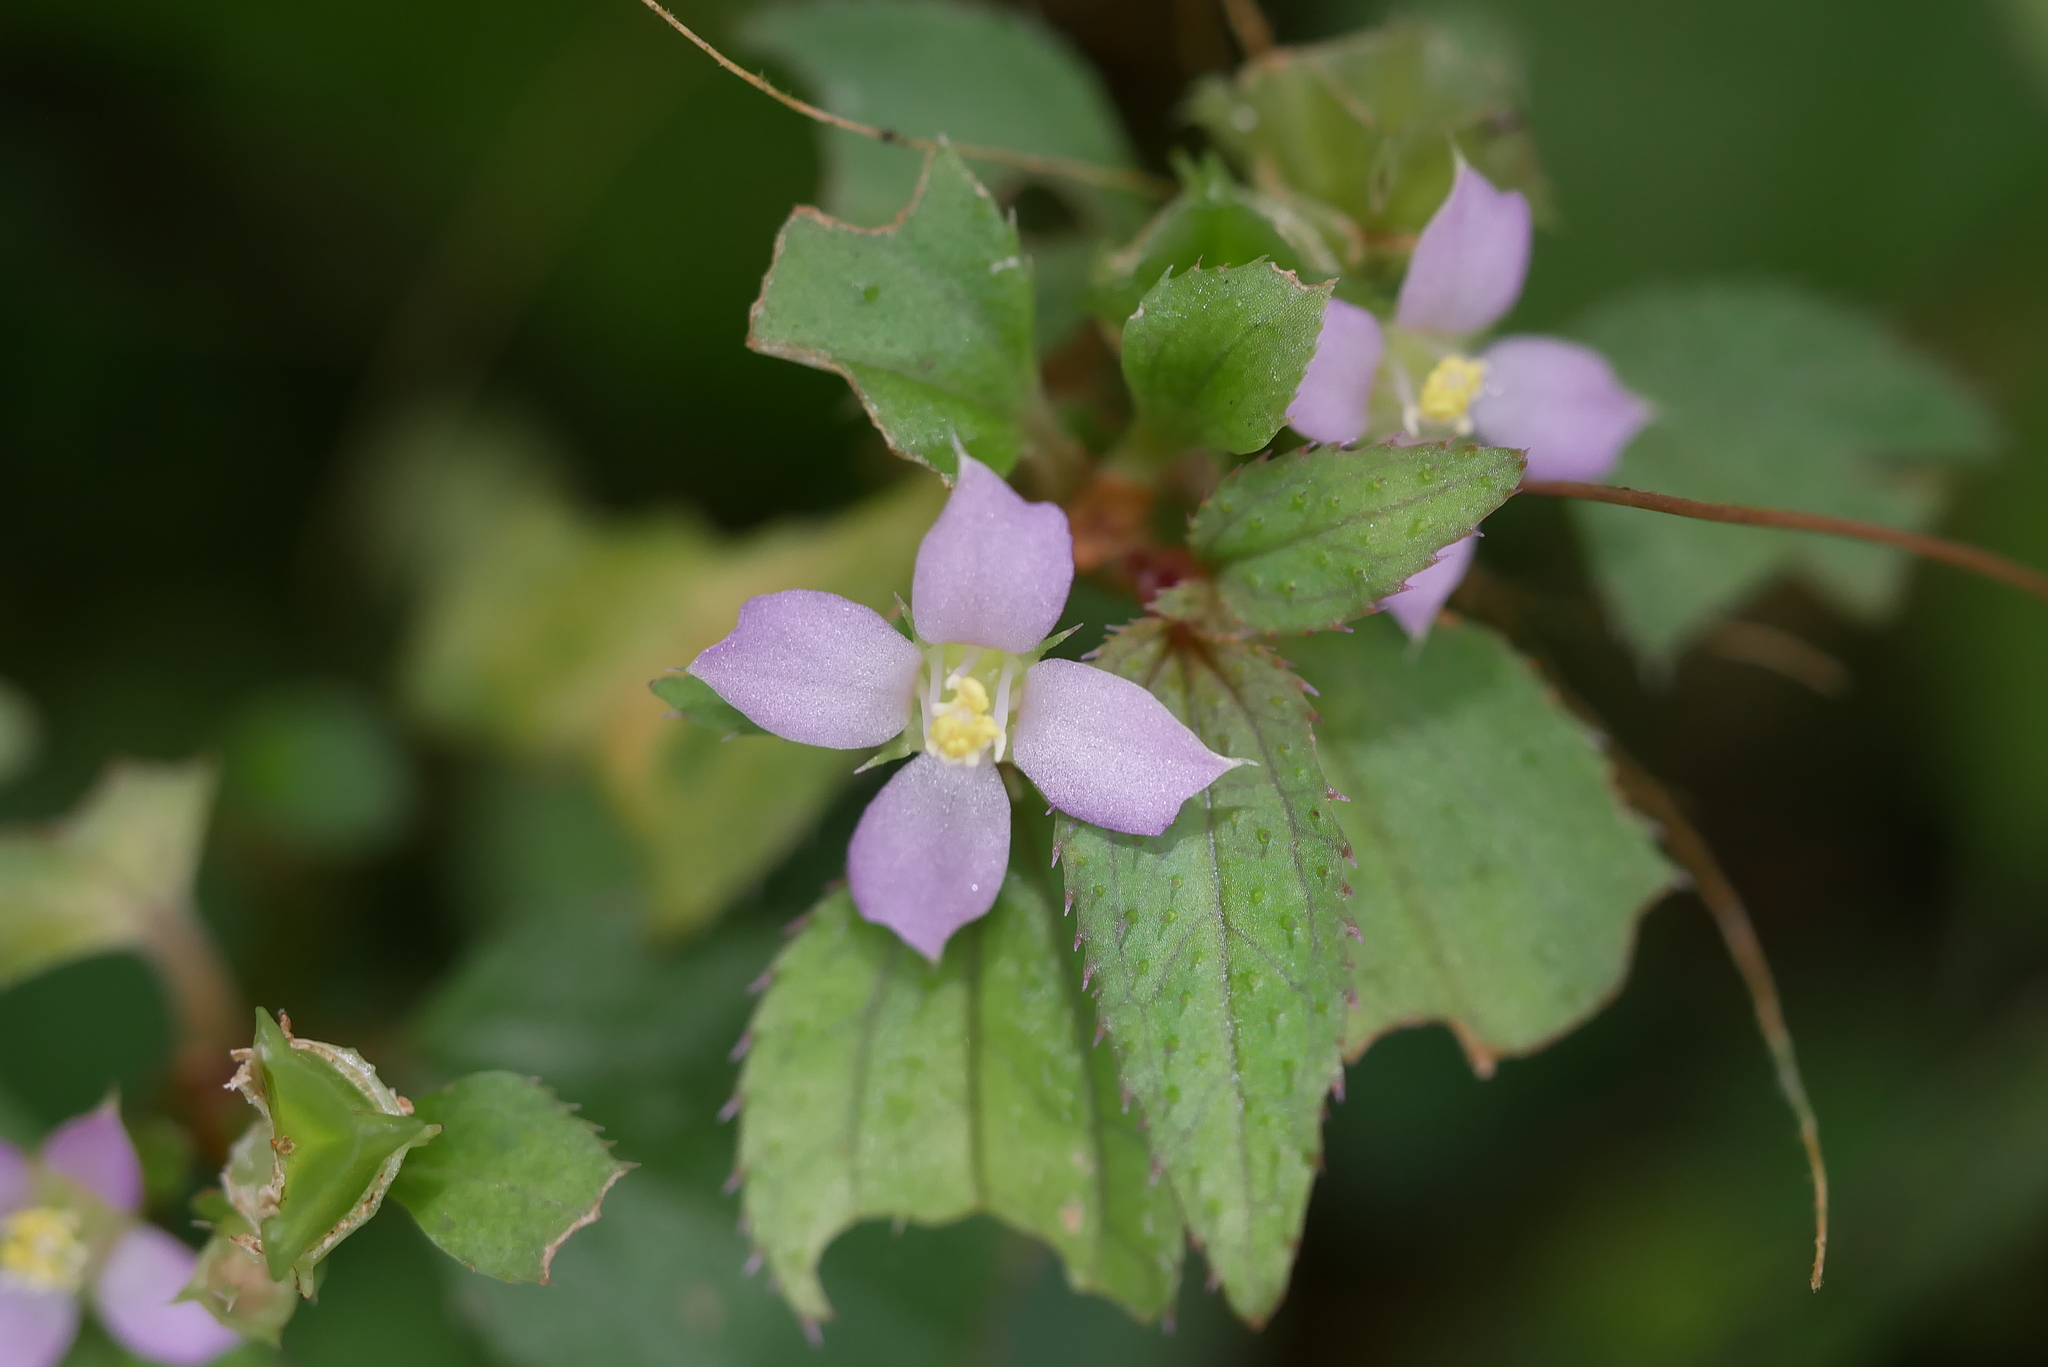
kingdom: Plantae
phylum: Tracheophyta
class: Magnoliopsida
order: Myrtales
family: Melastomataceae
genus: Sarcopyramis
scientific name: Sarcopyramis napalensis
